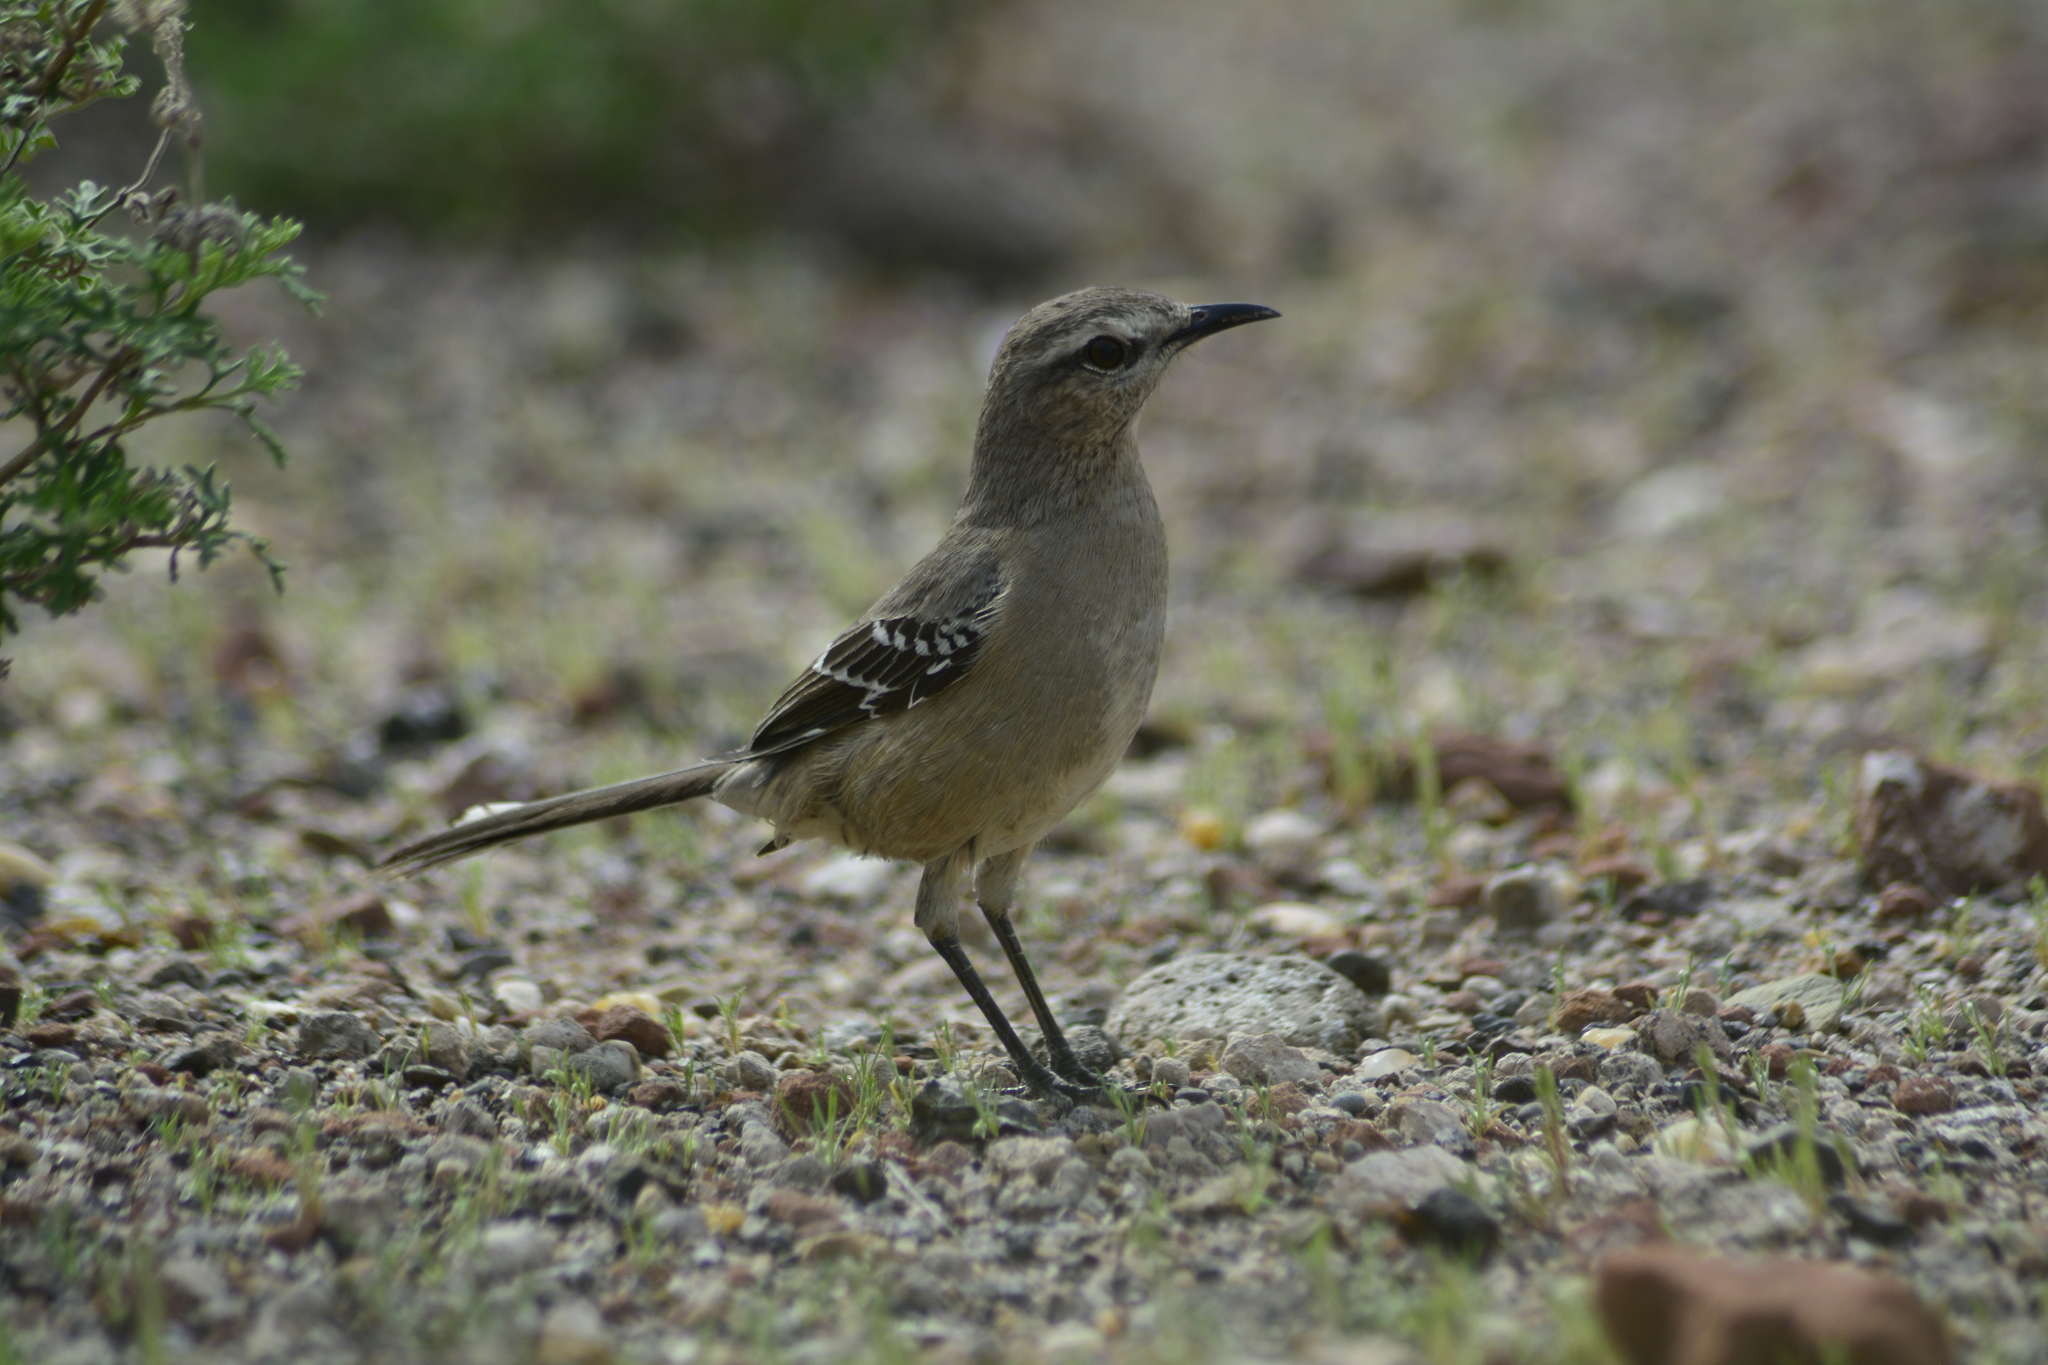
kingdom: Animalia
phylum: Chordata
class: Aves
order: Passeriformes
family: Mimidae
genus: Mimus
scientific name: Mimus patagonicus
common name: Patagonian mockingbird
